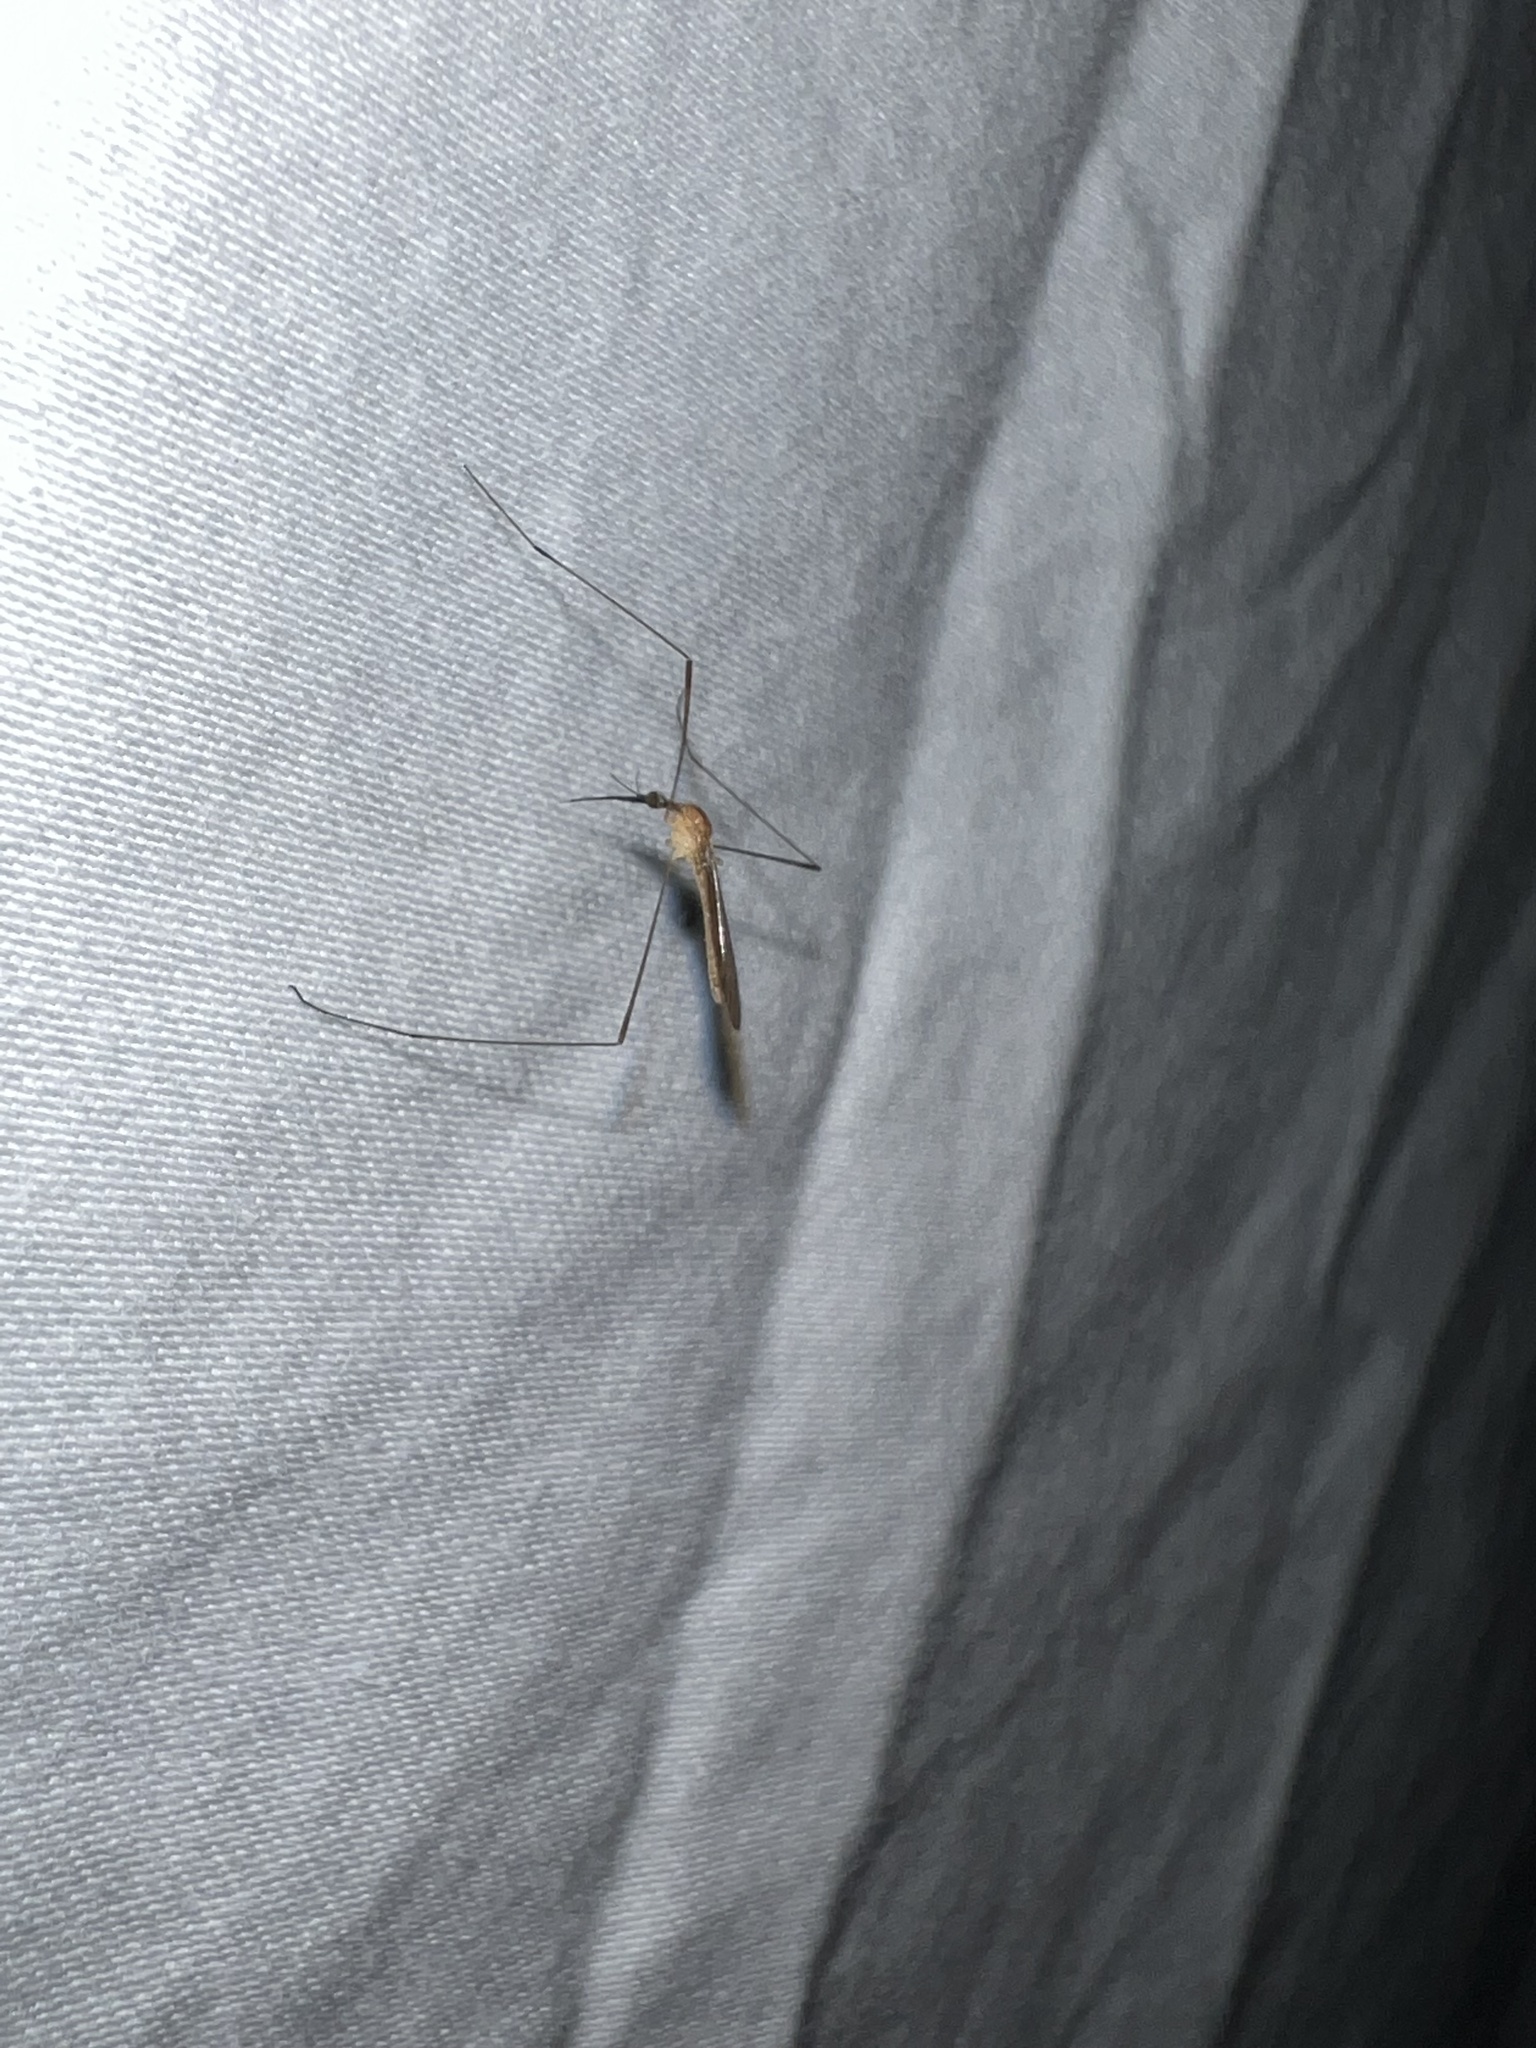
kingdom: Animalia
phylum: Arthropoda
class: Insecta
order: Diptera
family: Limoniidae
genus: Geranomyia
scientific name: Geranomyia tibialis
